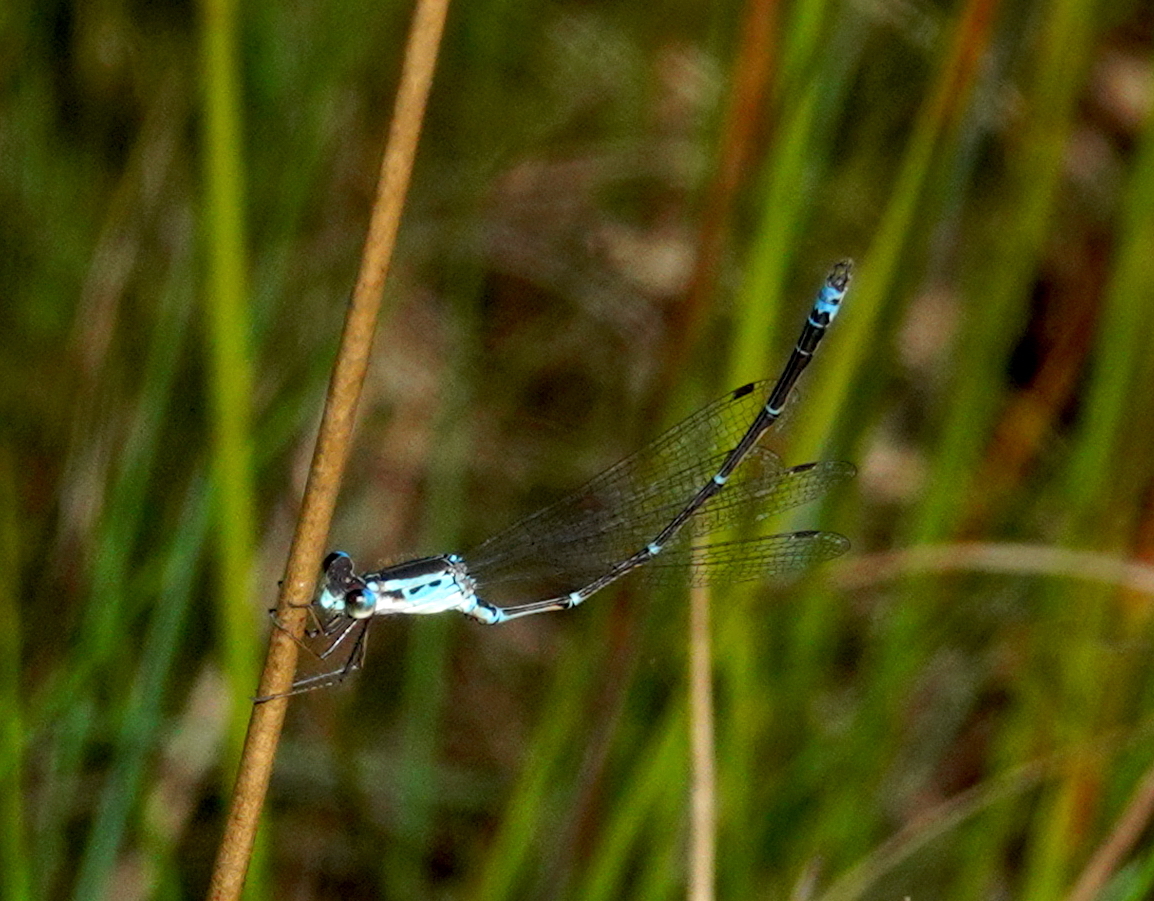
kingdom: Animalia
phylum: Arthropoda
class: Insecta
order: Odonata
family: Lestidae
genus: Indolestes
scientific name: Indolestes gracilis
